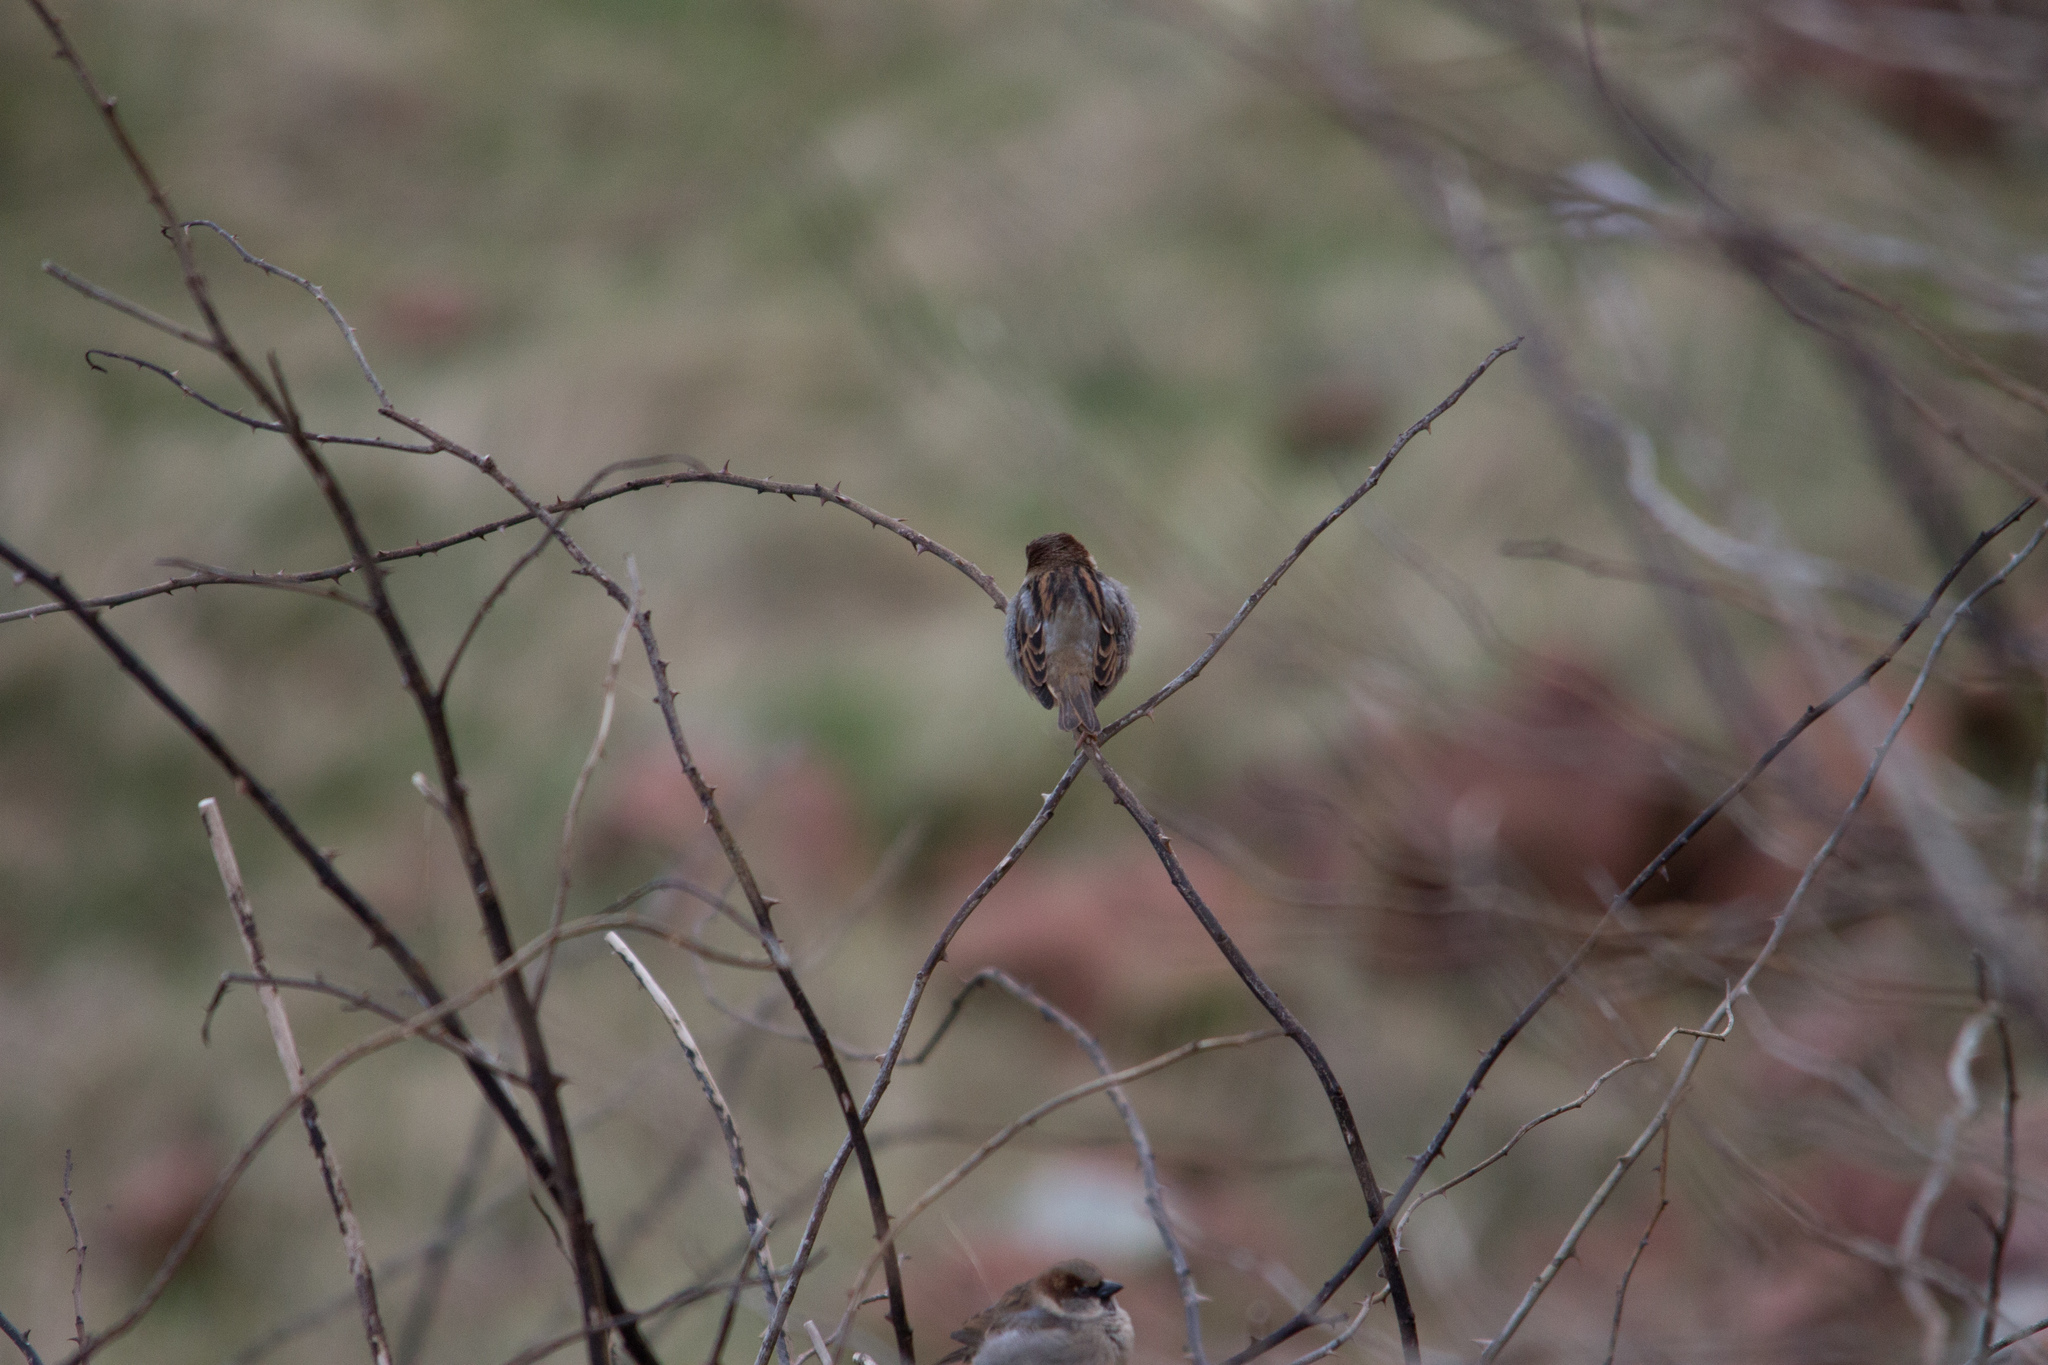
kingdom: Animalia
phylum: Chordata
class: Aves
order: Passeriformes
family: Passeridae
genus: Passer
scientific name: Passer domesticus
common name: House sparrow
